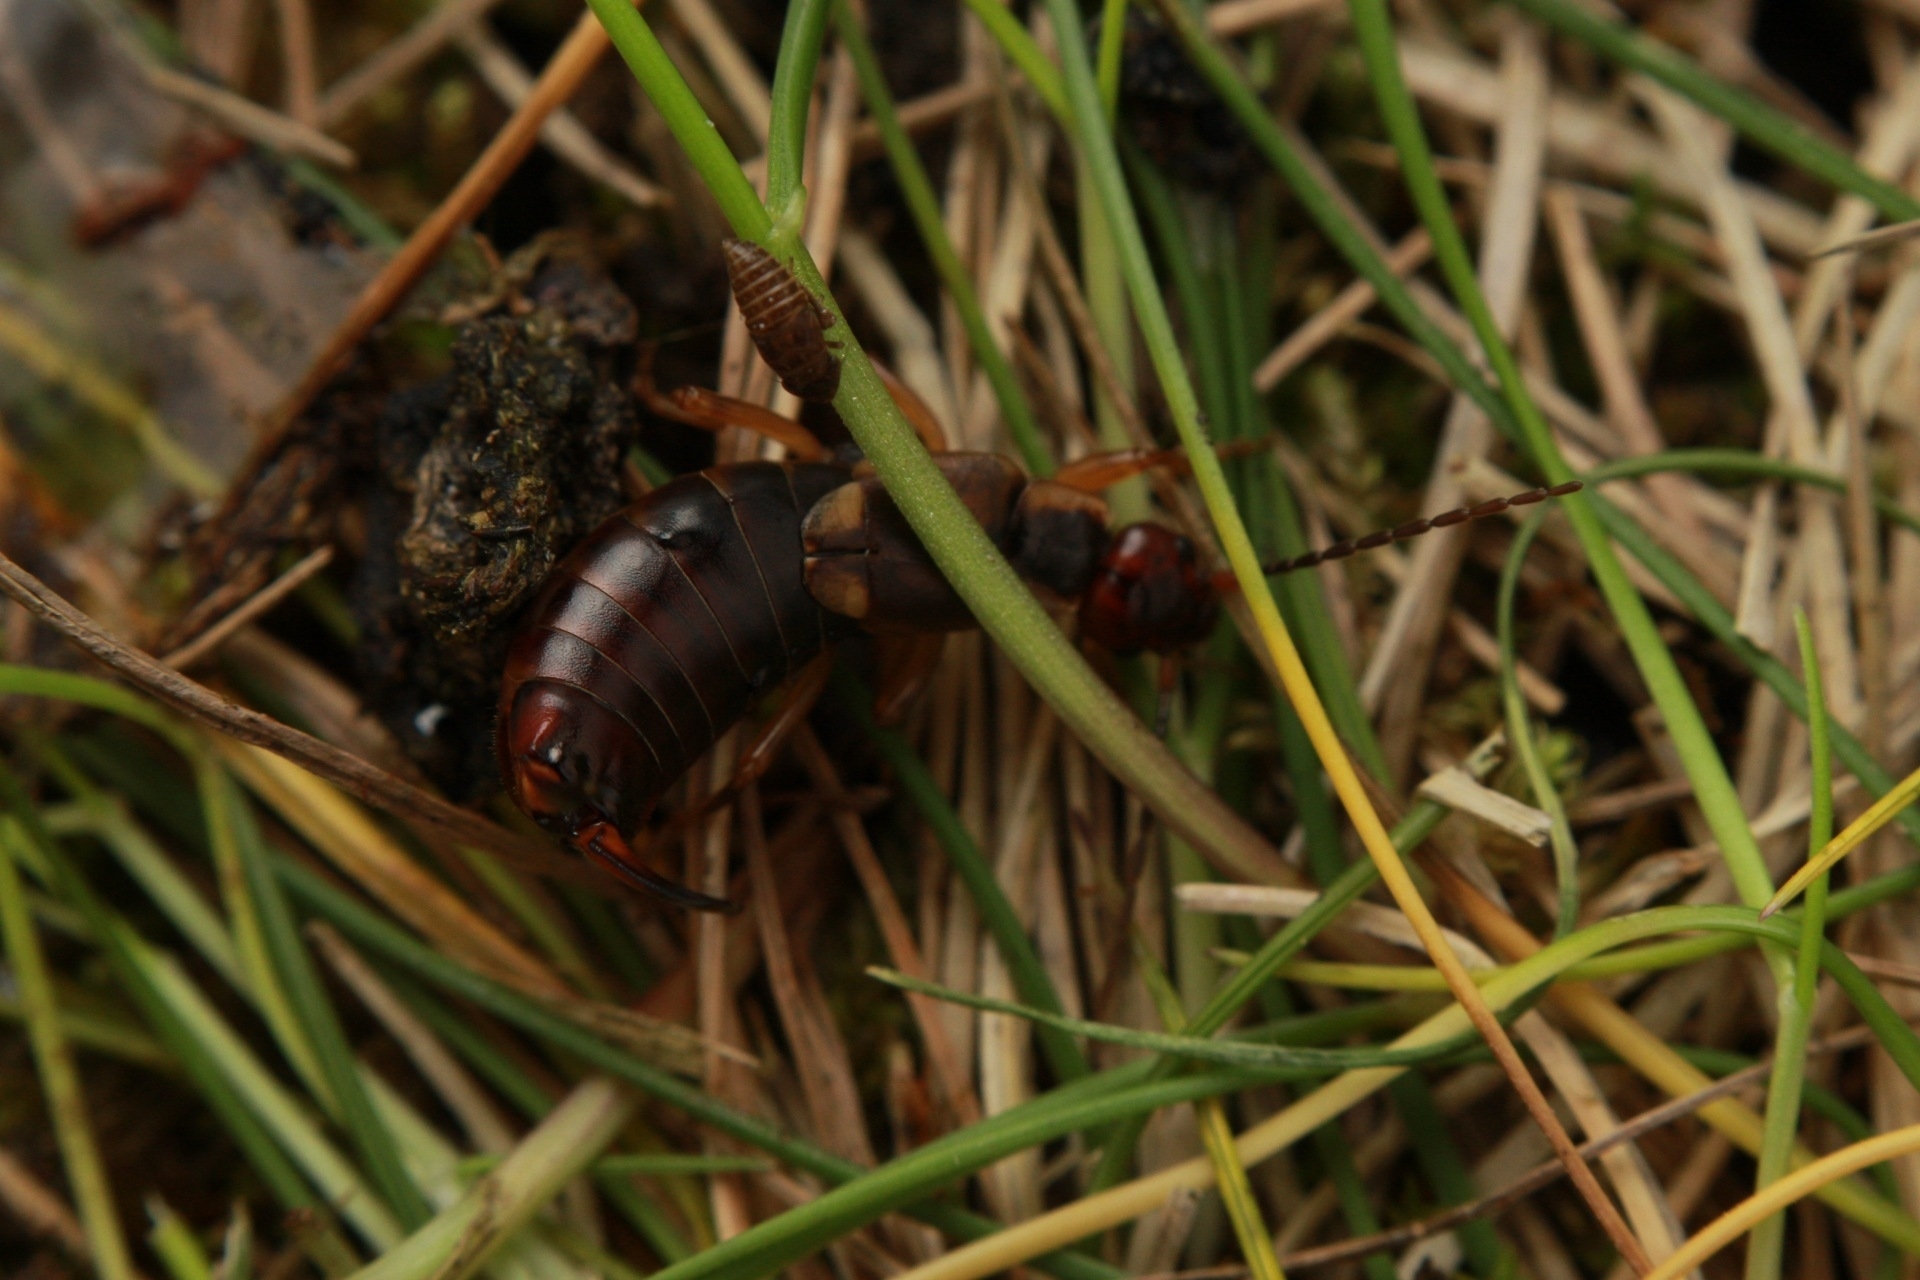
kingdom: Animalia
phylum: Arthropoda
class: Insecta
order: Dermaptera
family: Forficulidae
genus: Forficula
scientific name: Forficula
